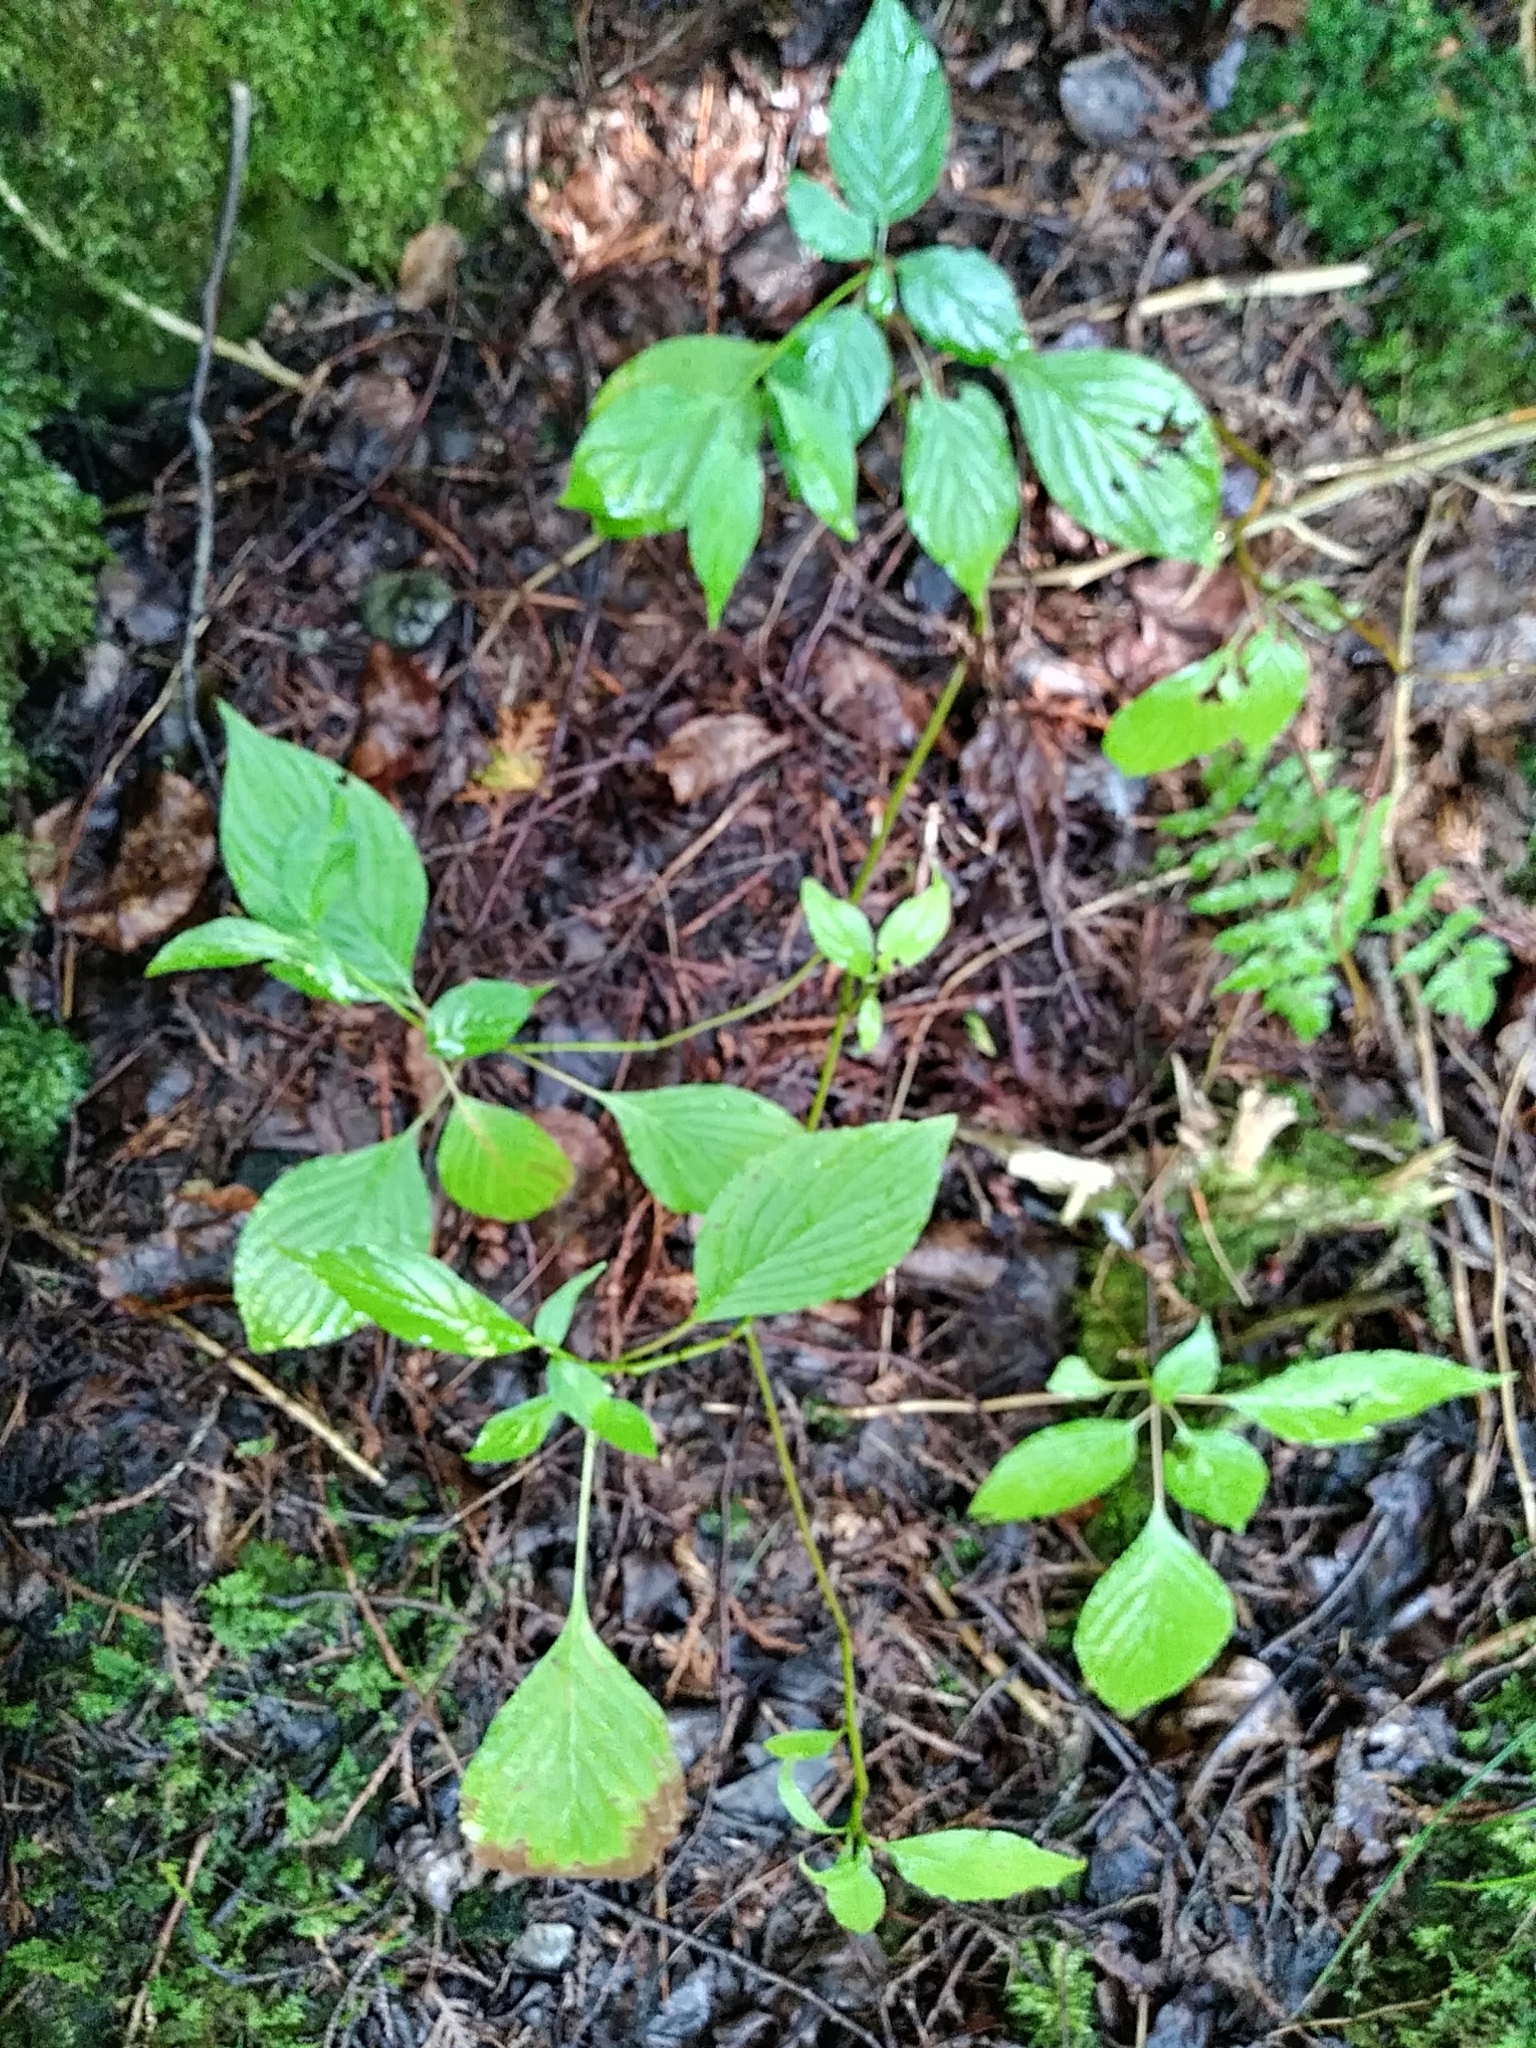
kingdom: Plantae
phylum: Tracheophyta
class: Magnoliopsida
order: Cornales
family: Cornaceae
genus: Cornus
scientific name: Cornus alternifolia
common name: Pagoda dogwood
